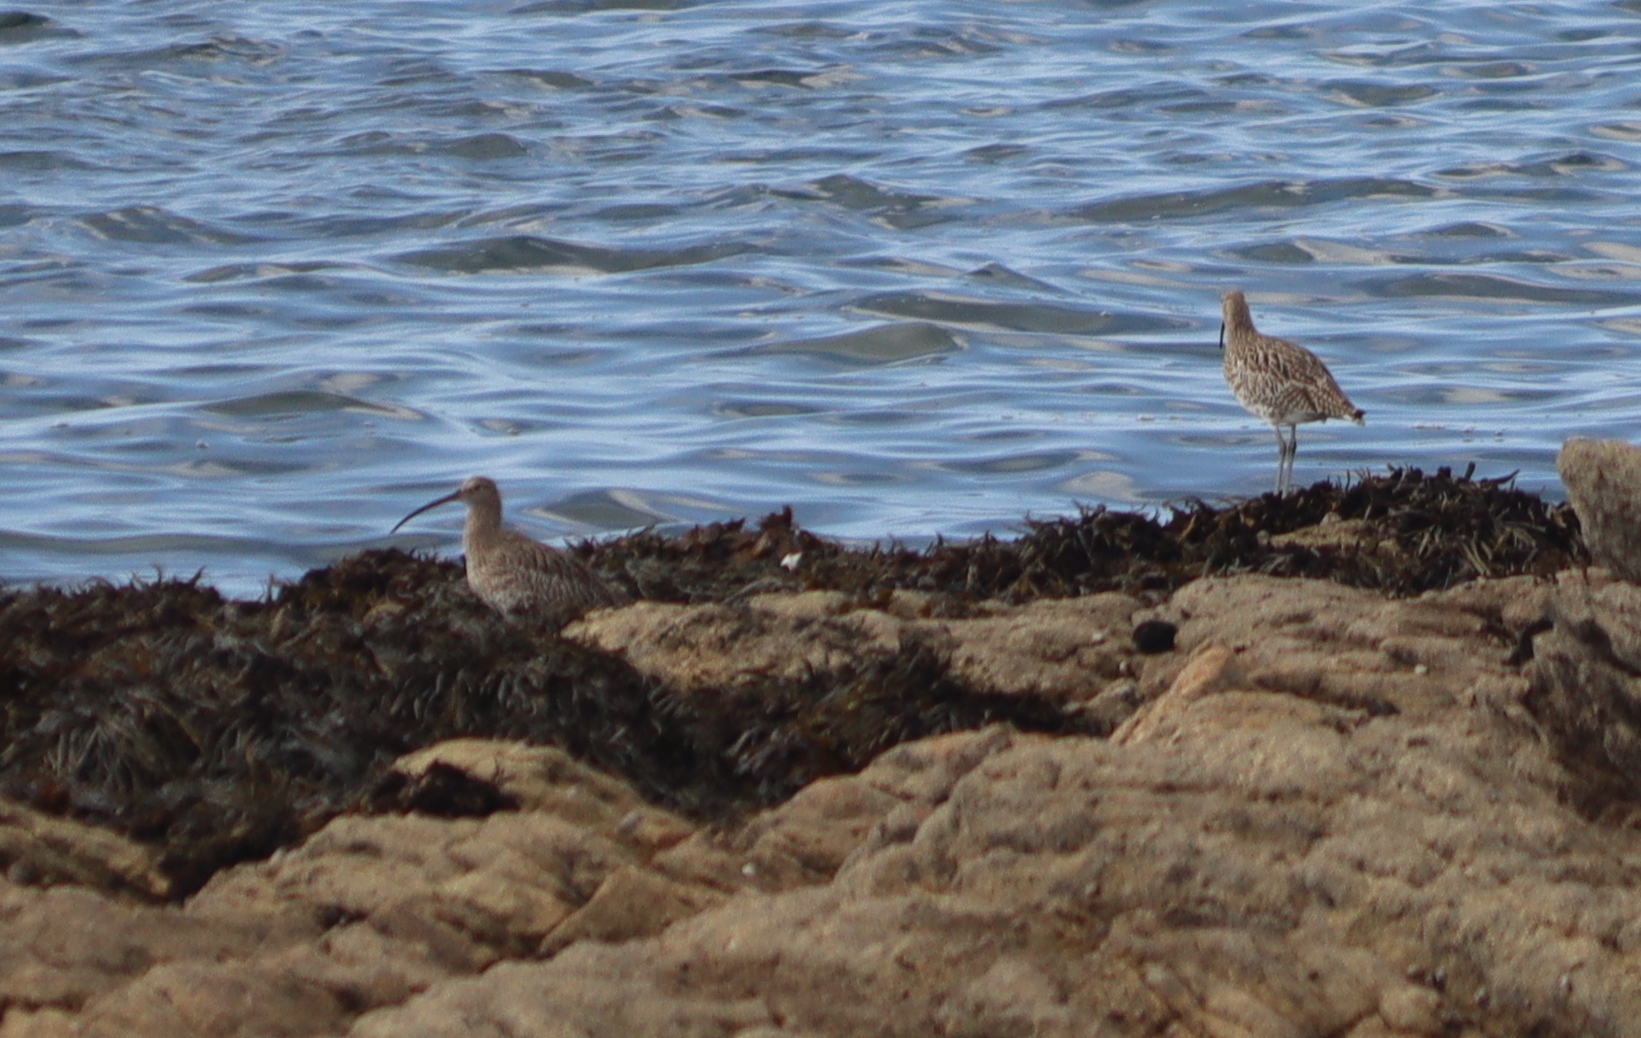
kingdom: Animalia
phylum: Chordata
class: Aves
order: Charadriiformes
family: Scolopacidae
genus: Numenius
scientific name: Numenius arquata
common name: Eurasian curlew
